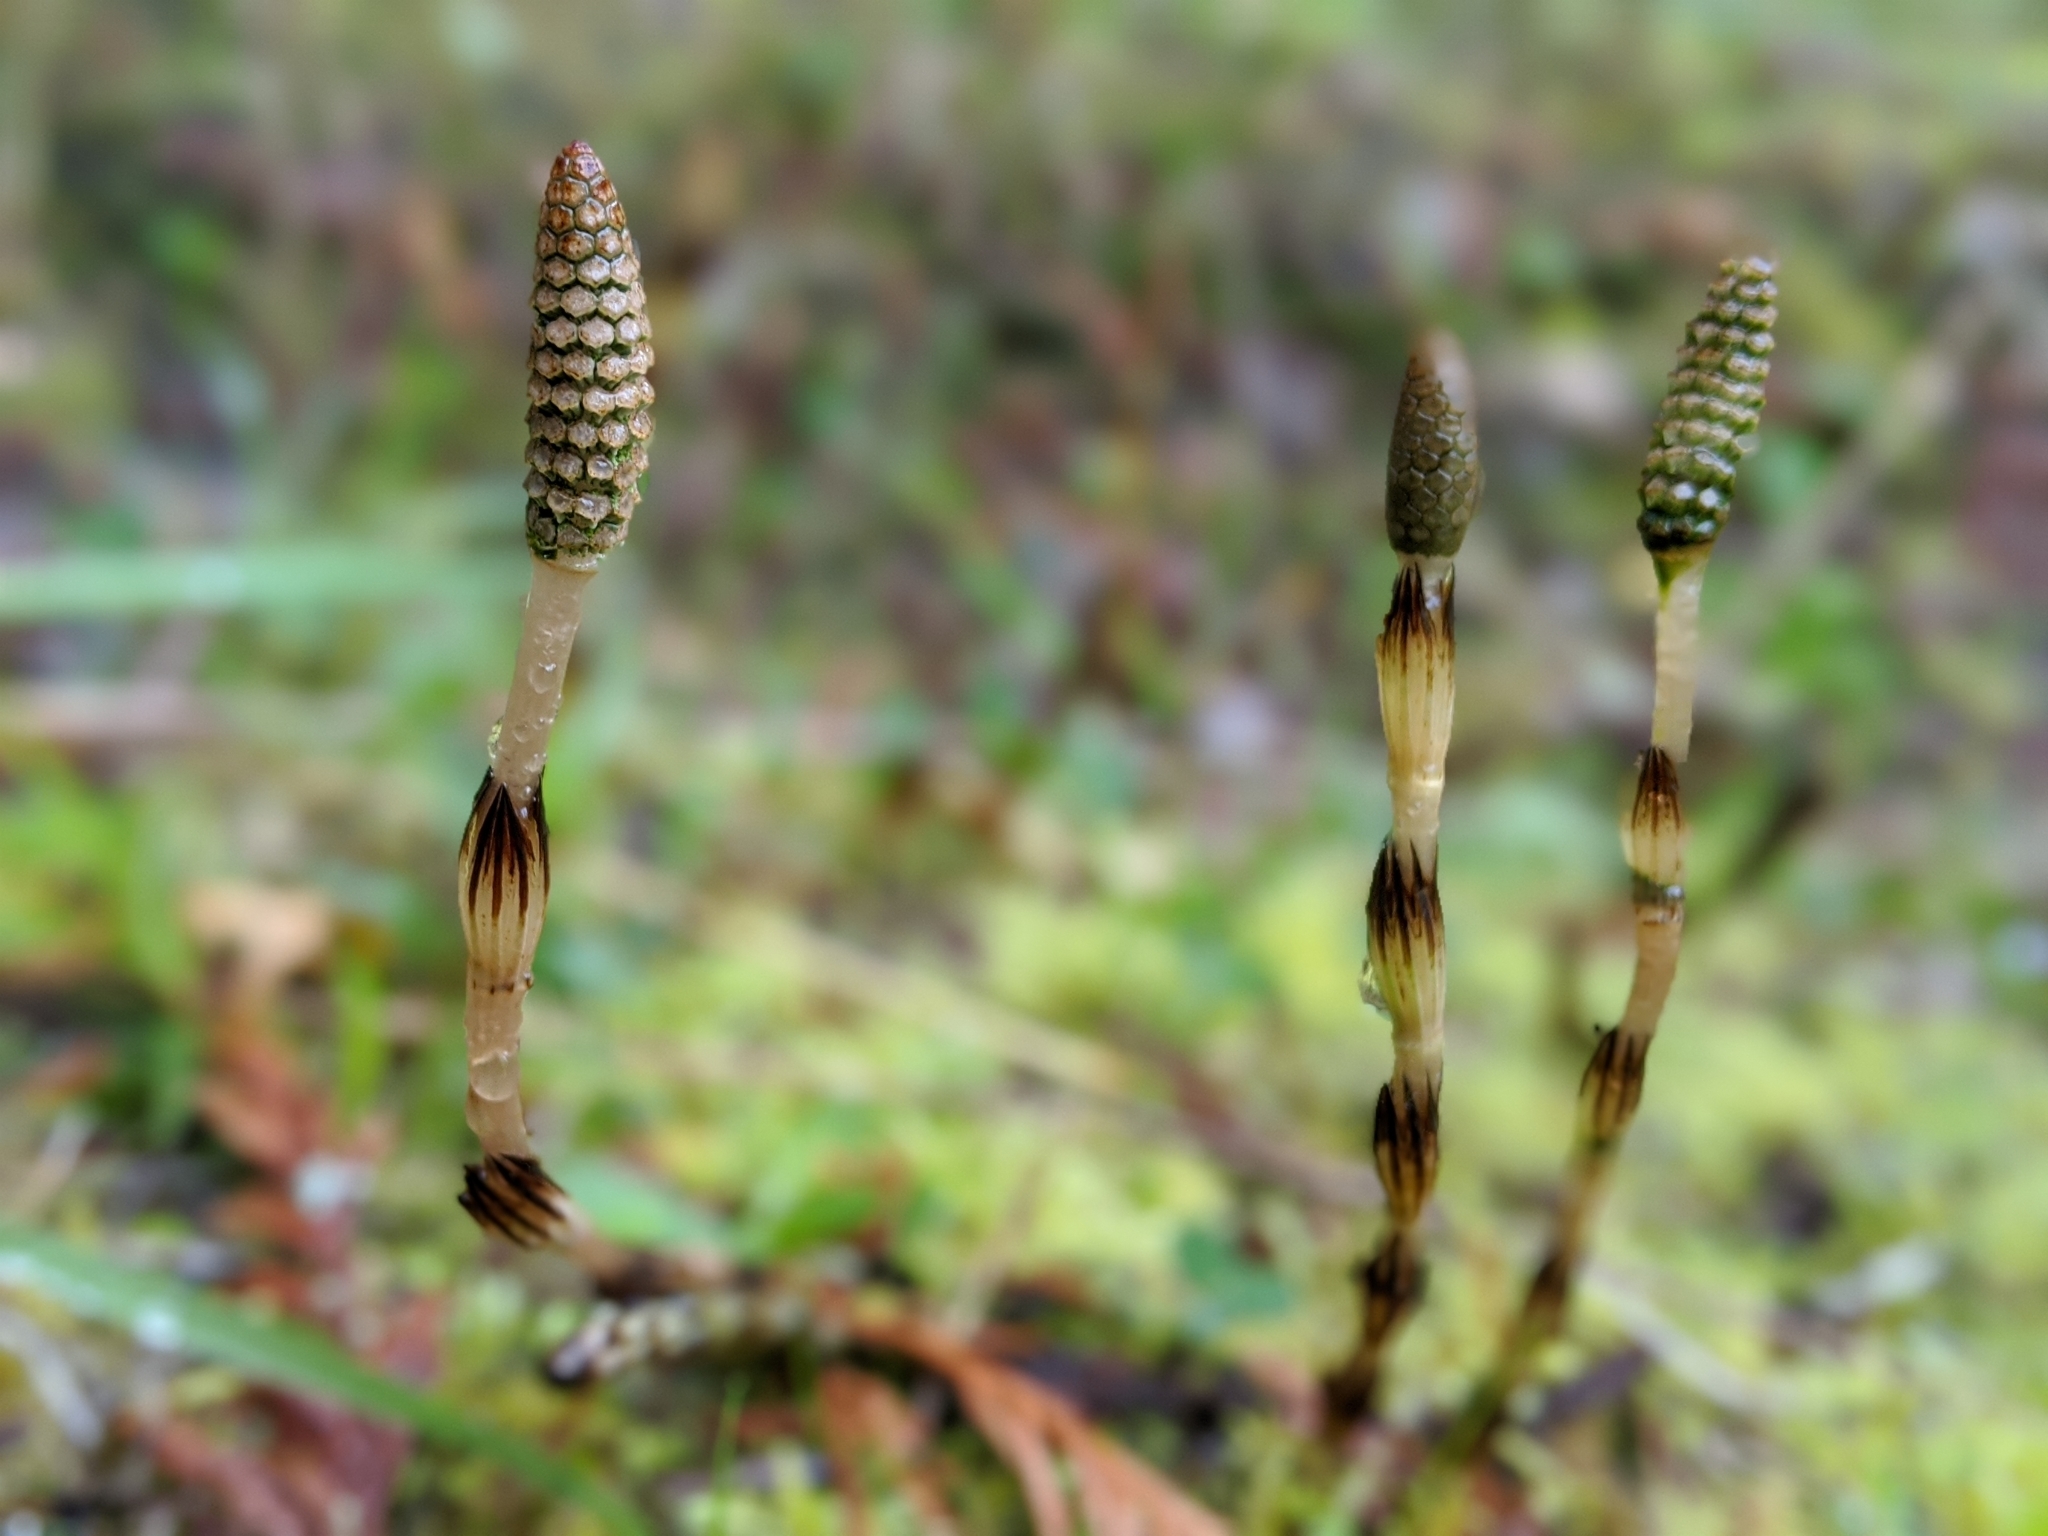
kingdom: Plantae
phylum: Tracheophyta
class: Polypodiopsida
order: Equisetales
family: Equisetaceae
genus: Equisetum
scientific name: Equisetum arvense
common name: Field horsetail
